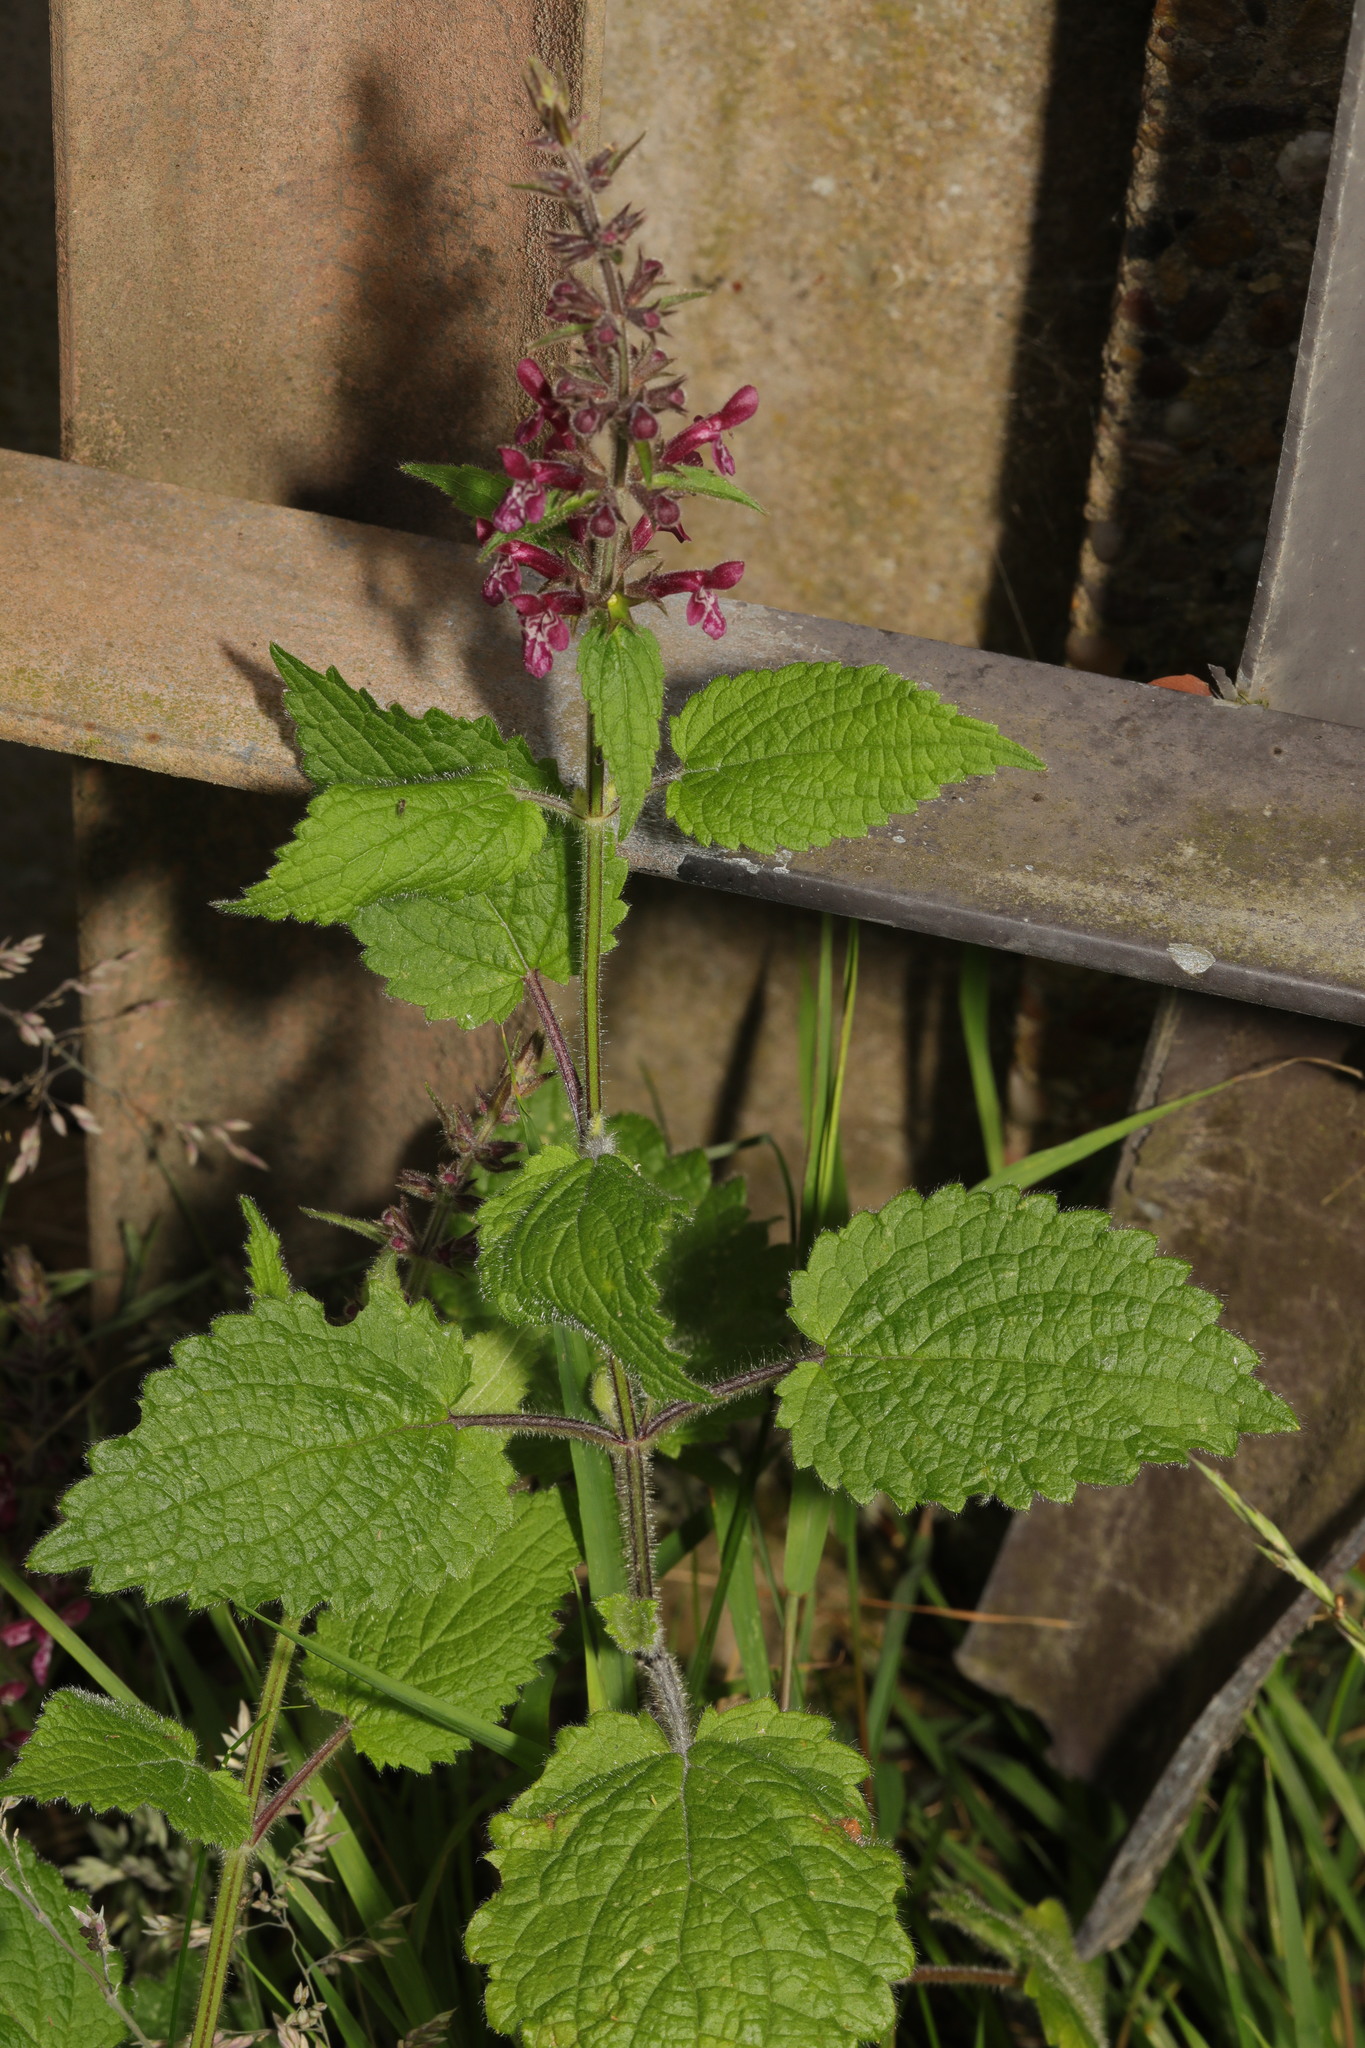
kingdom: Plantae
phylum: Tracheophyta
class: Magnoliopsida
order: Lamiales
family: Lamiaceae
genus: Stachys
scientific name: Stachys sylvatica
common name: Hedge woundwort
